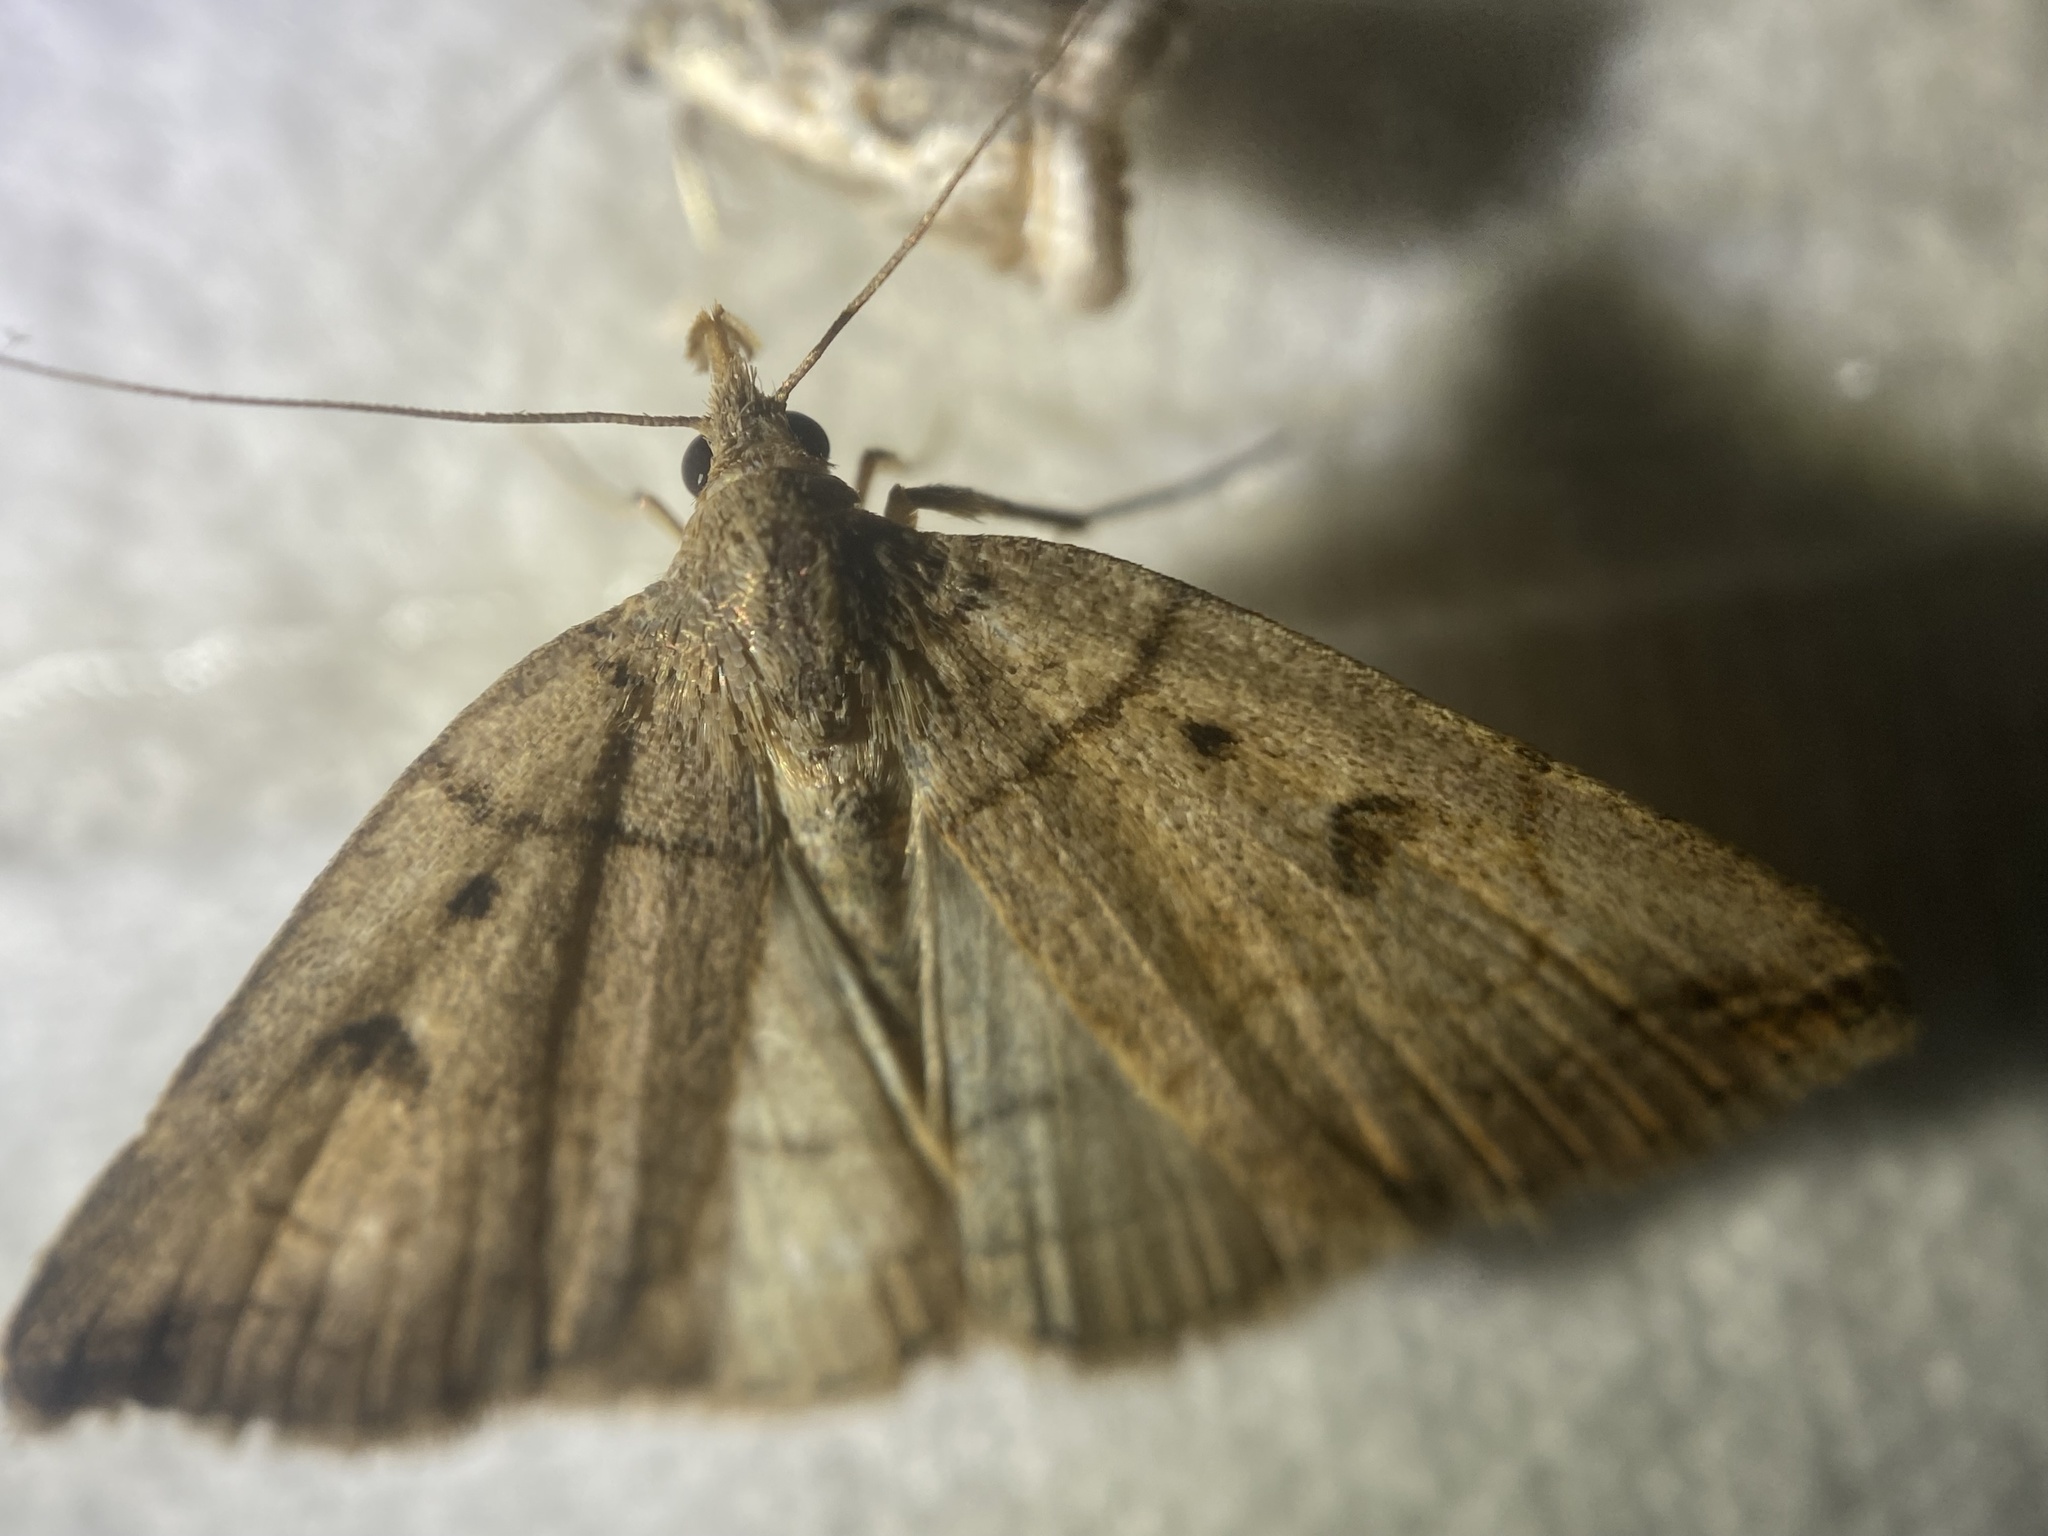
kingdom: Animalia
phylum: Arthropoda
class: Insecta
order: Lepidoptera
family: Erebidae
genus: Zanclognatha
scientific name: Zanclognatha laevigata
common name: Variable fan-foot
